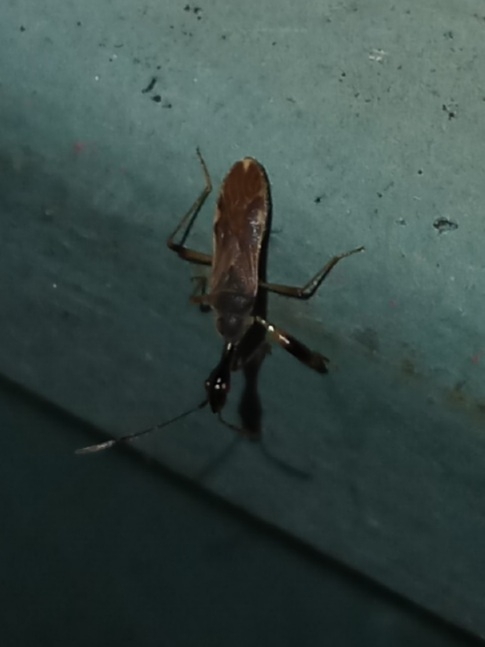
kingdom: Animalia
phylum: Arthropoda
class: Insecta
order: Hemiptera
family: Rhyparochromidae
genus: Myodocha
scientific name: Myodocha serripes
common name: Long-necked seed bug
